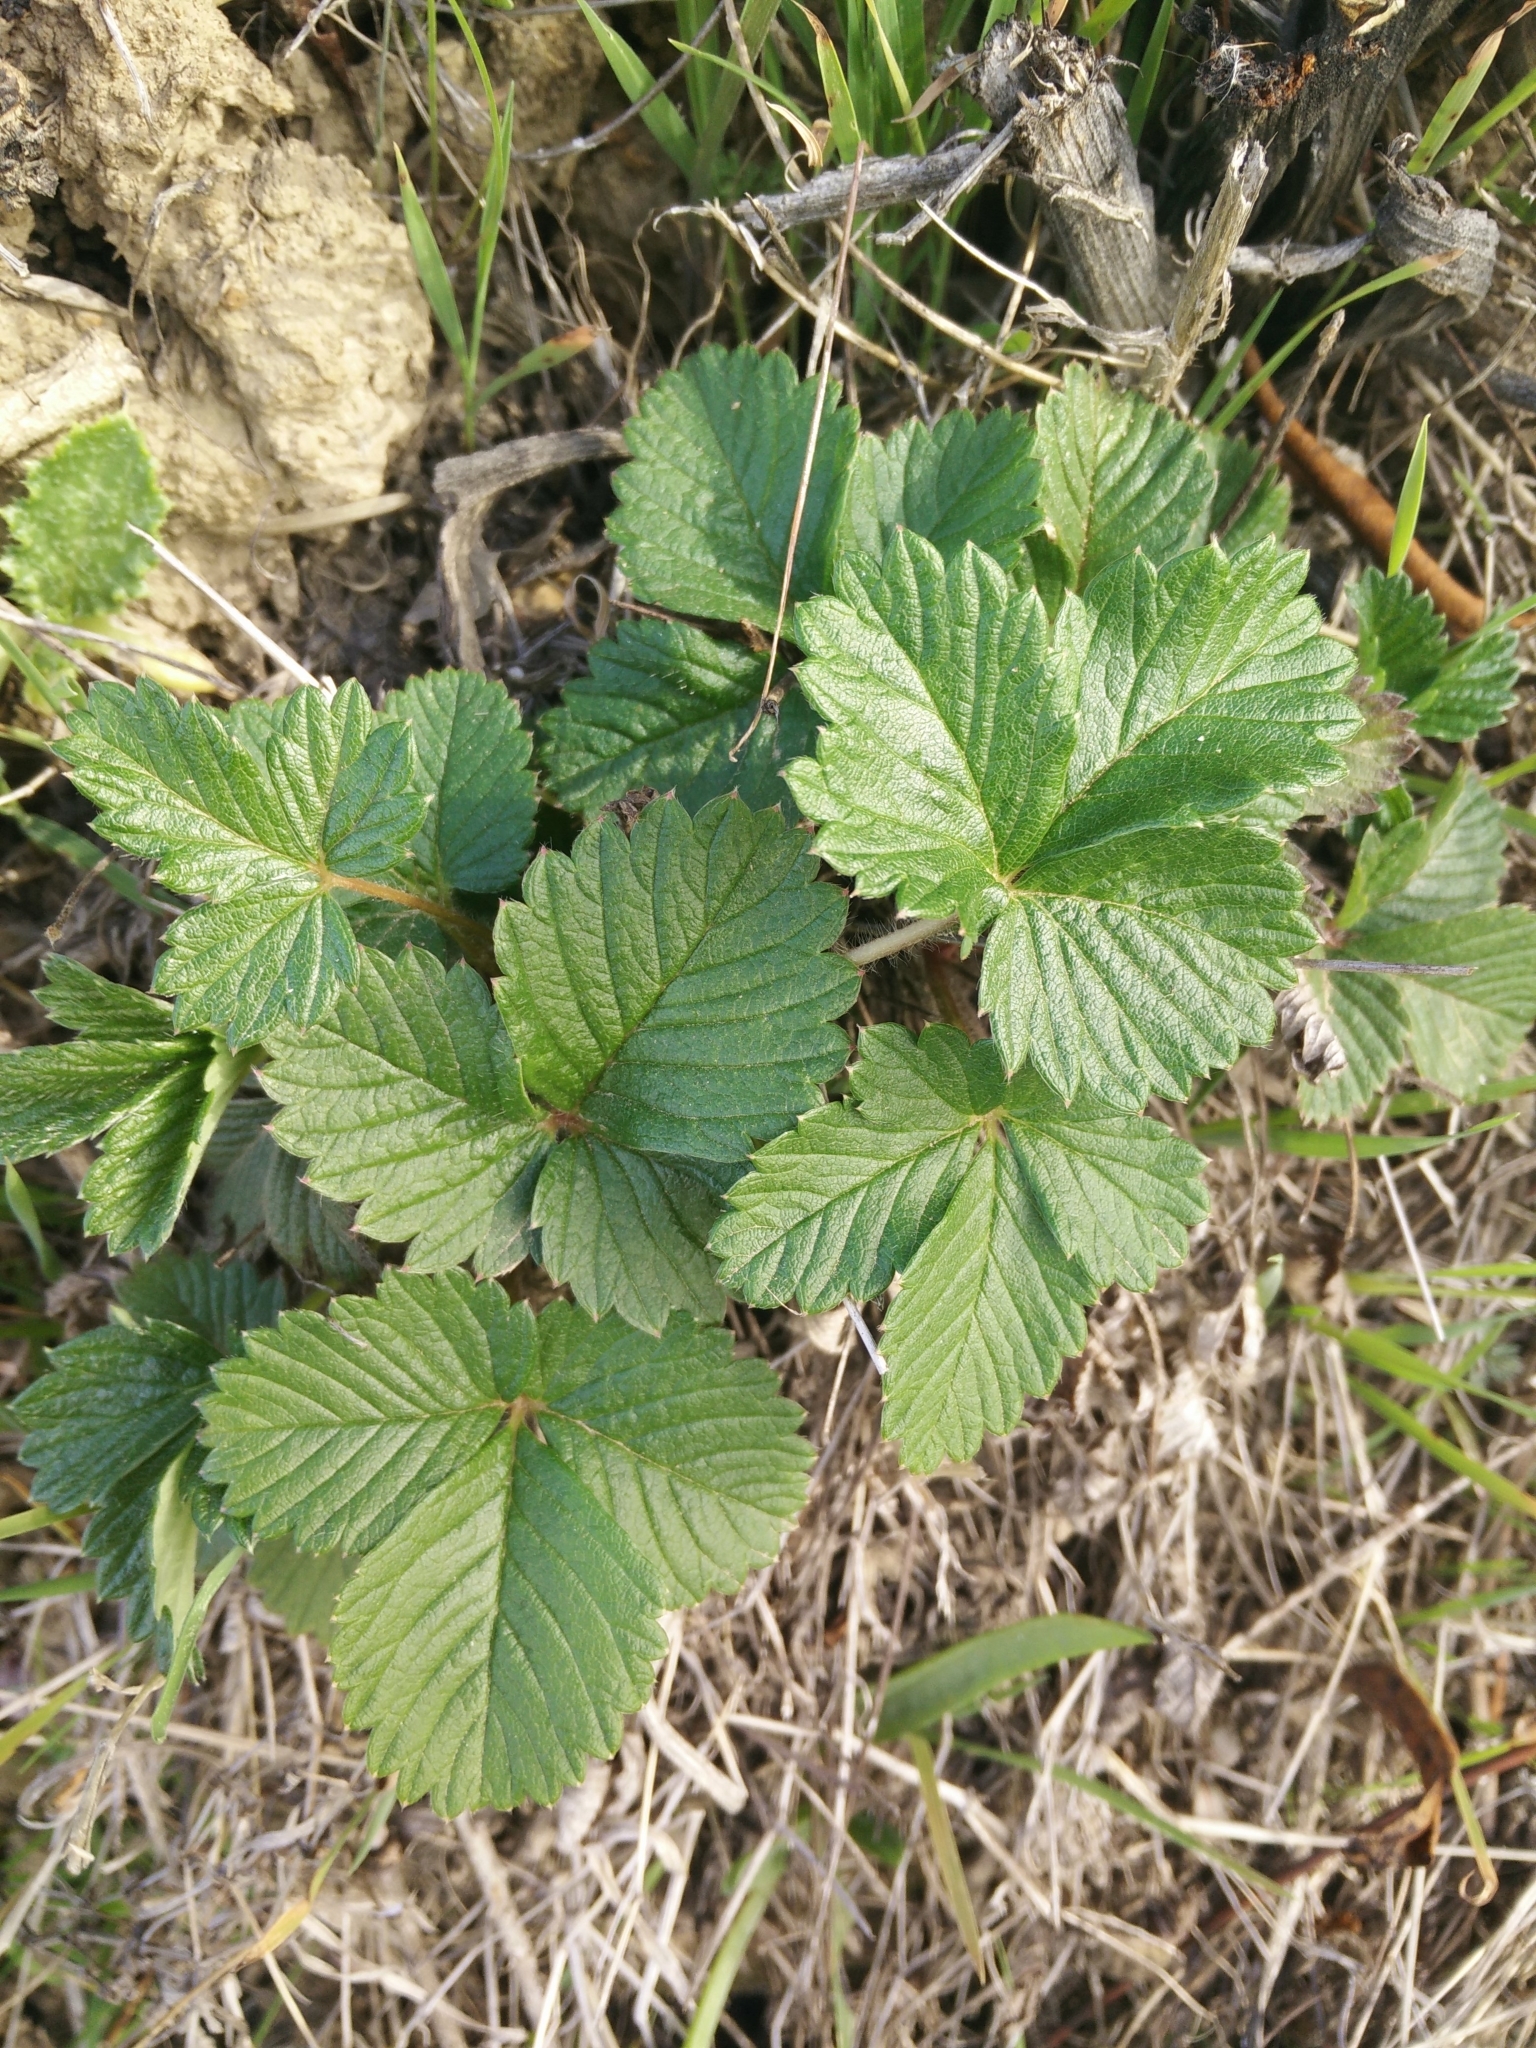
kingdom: Plantae
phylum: Tracheophyta
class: Magnoliopsida
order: Rosales
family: Rosaceae
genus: Fragaria
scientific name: Fragaria vesca
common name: Wild strawberry
